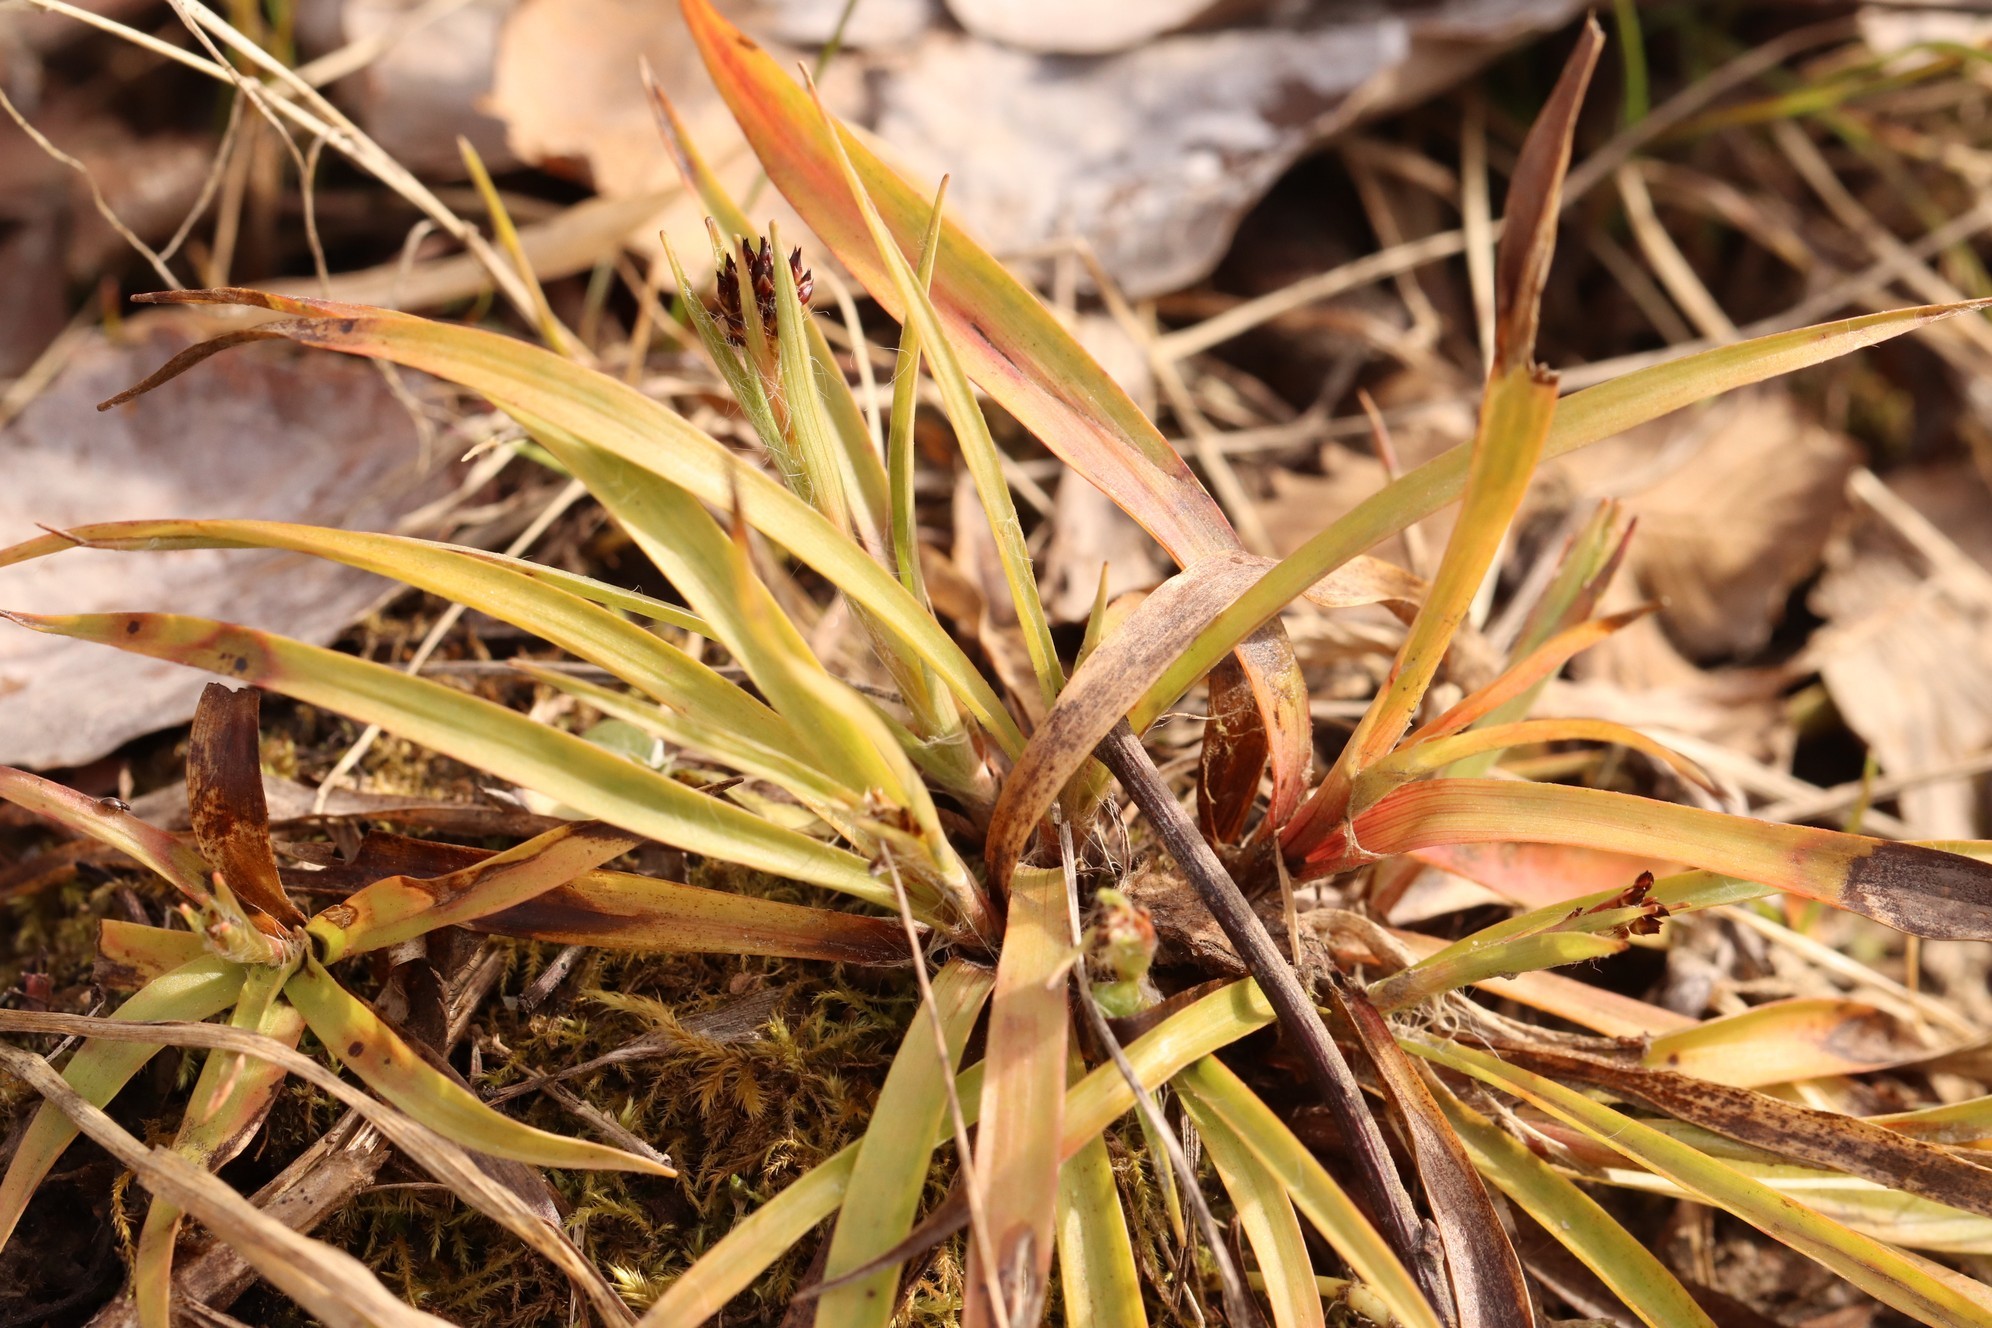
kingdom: Plantae
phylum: Tracheophyta
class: Liliopsida
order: Poales
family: Juncaceae
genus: Luzula
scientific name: Luzula pilosa
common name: Hairy wood-rush
